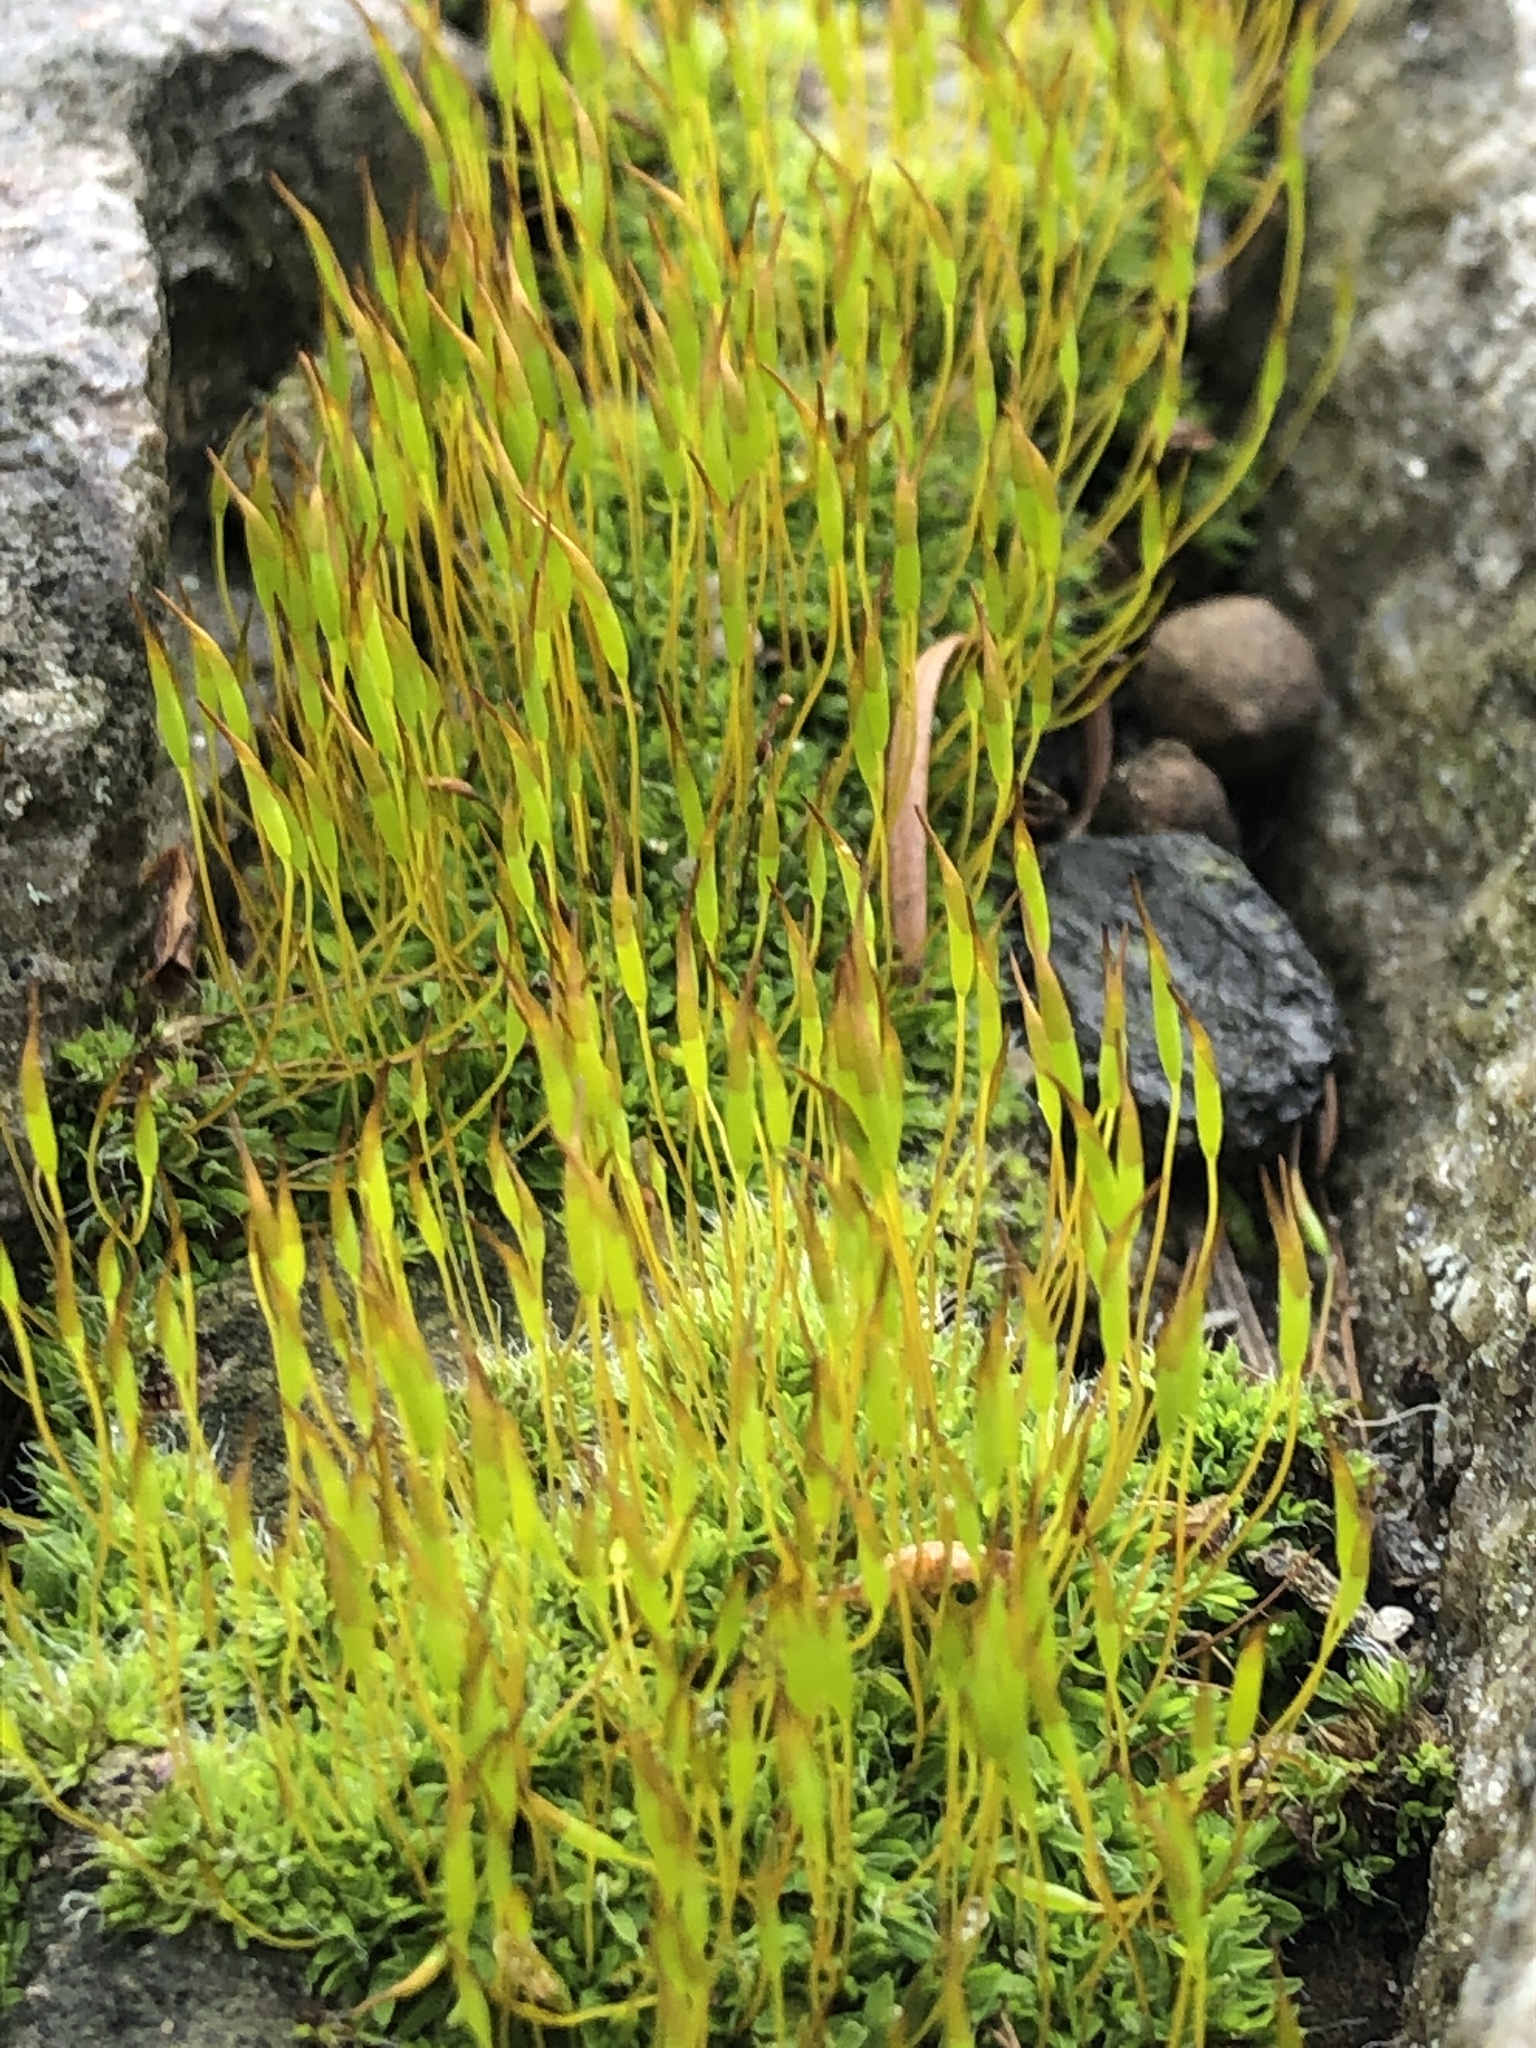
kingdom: Plantae
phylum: Bryophyta
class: Bryopsida
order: Pottiales
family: Pottiaceae
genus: Tortula
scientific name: Tortula muralis
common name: Wall screw-moss
